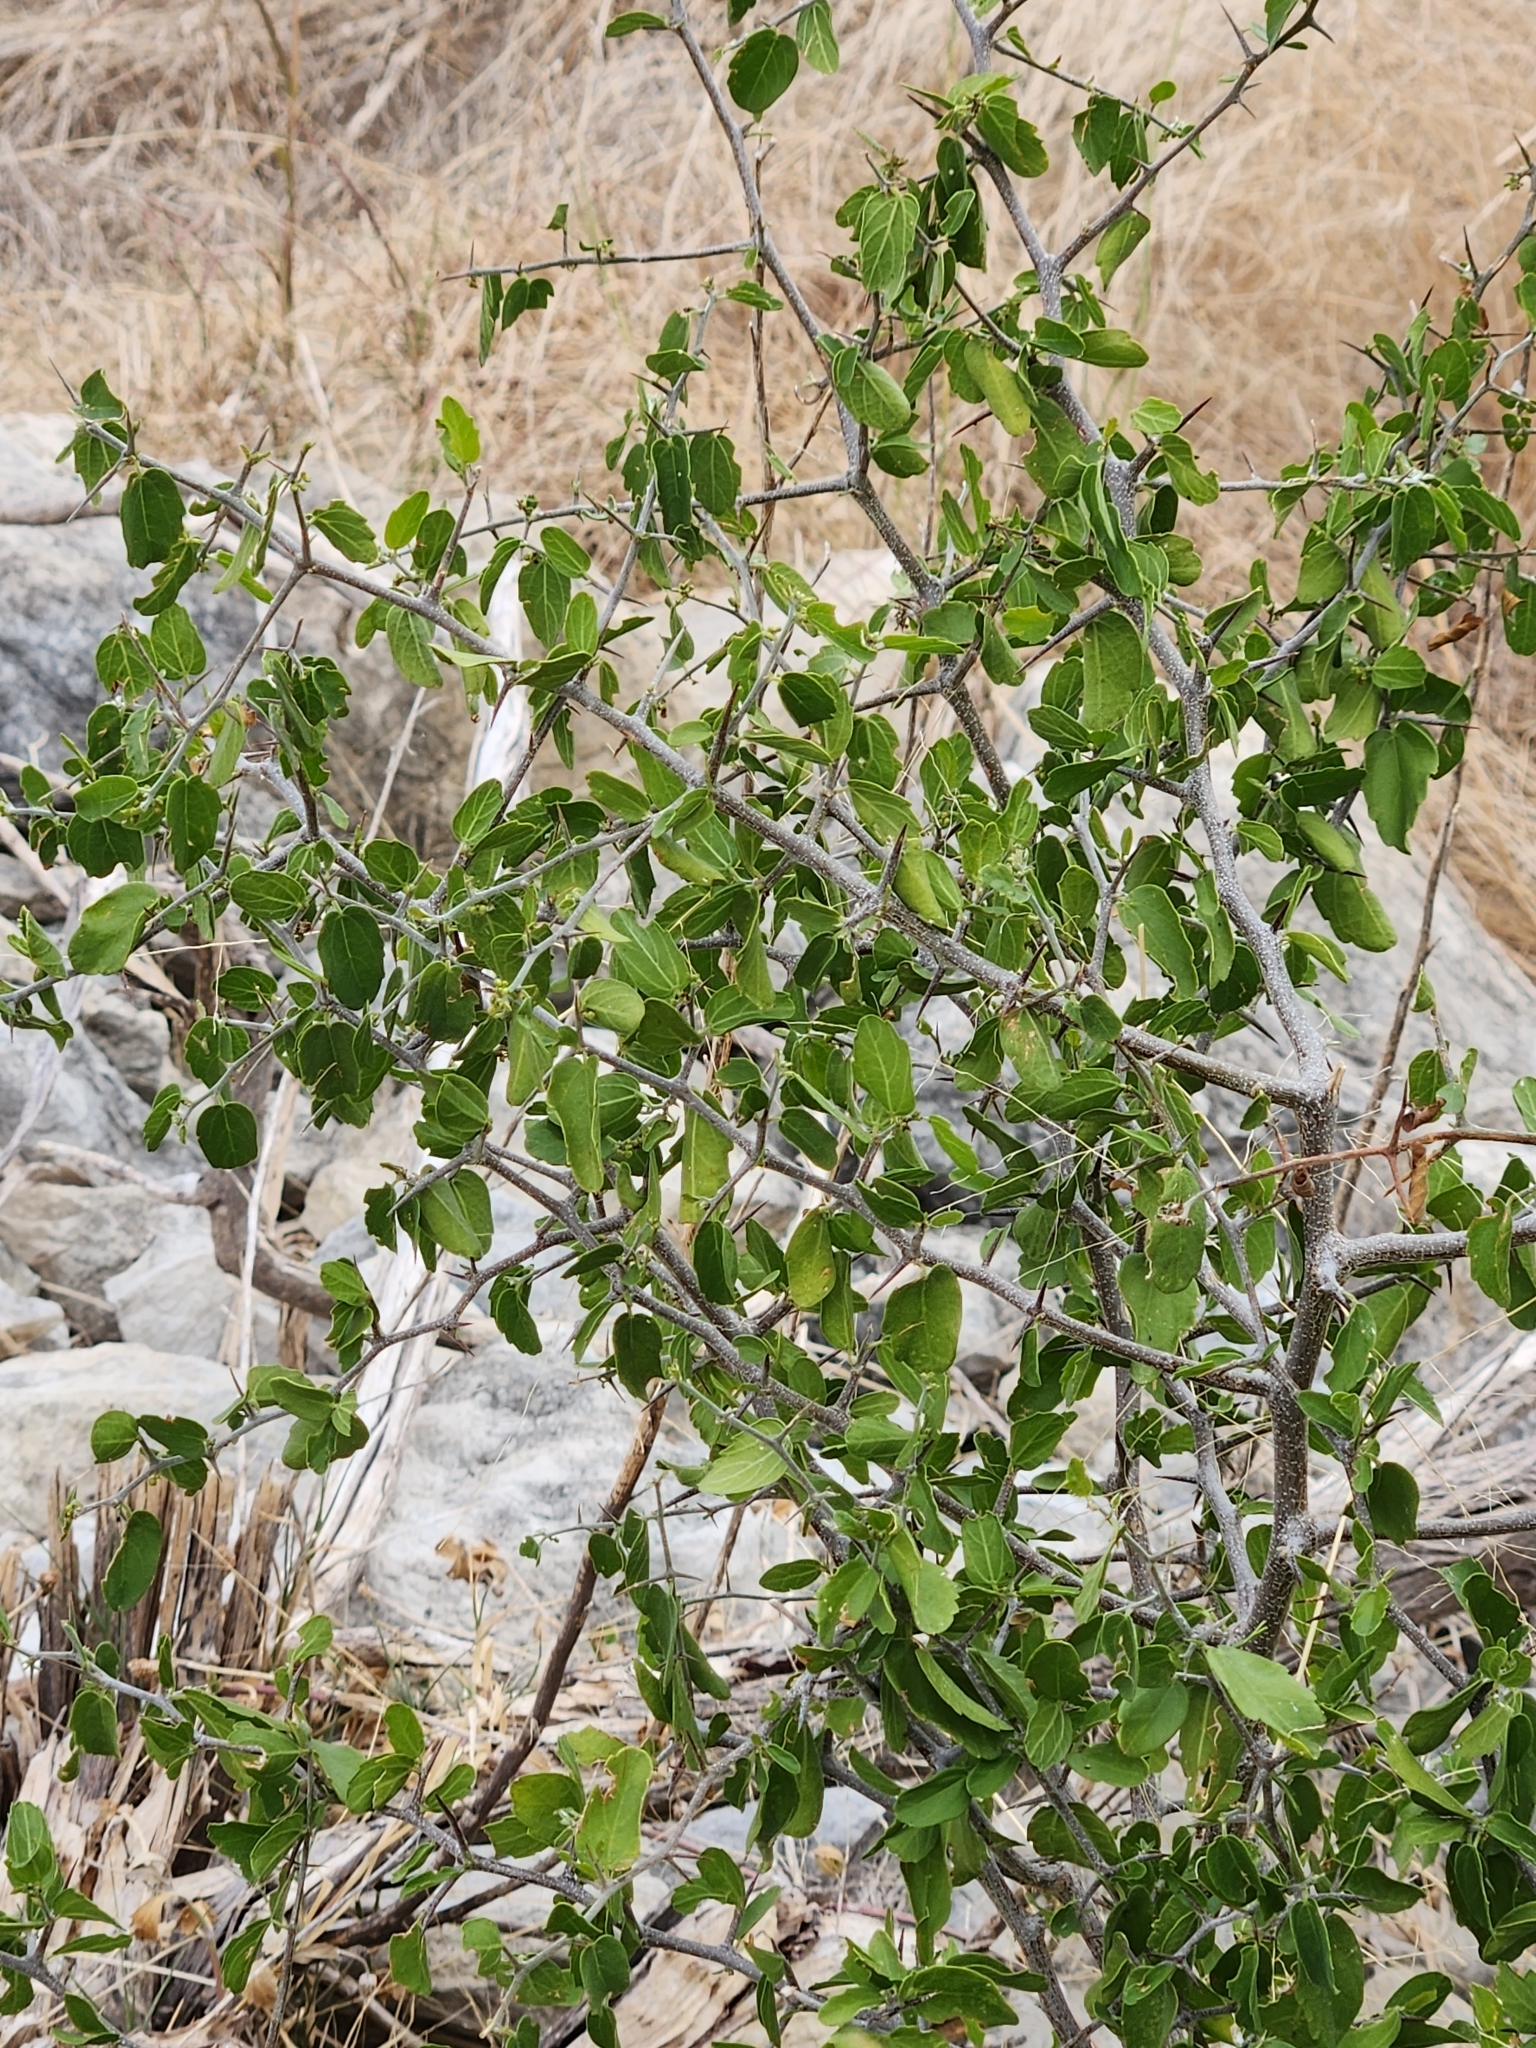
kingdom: Plantae
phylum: Tracheophyta
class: Magnoliopsida
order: Rosales
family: Cannabaceae
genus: Celtis
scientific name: Celtis pallida
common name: Desert hackberry
